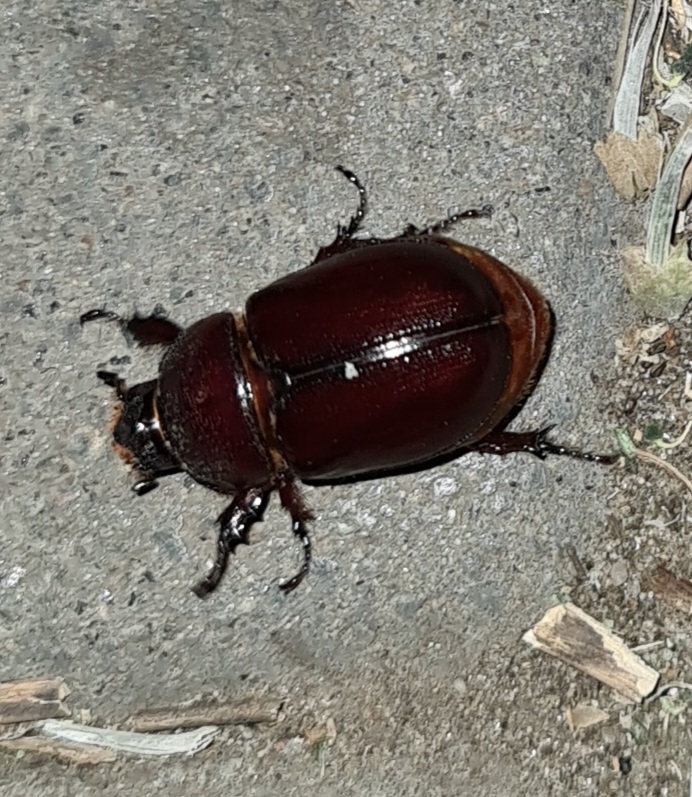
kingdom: Animalia
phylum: Arthropoda
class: Insecta
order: Coleoptera
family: Scarabaeidae
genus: Oryctes
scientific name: Oryctes nasicornis
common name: European rhinoceros beetle
